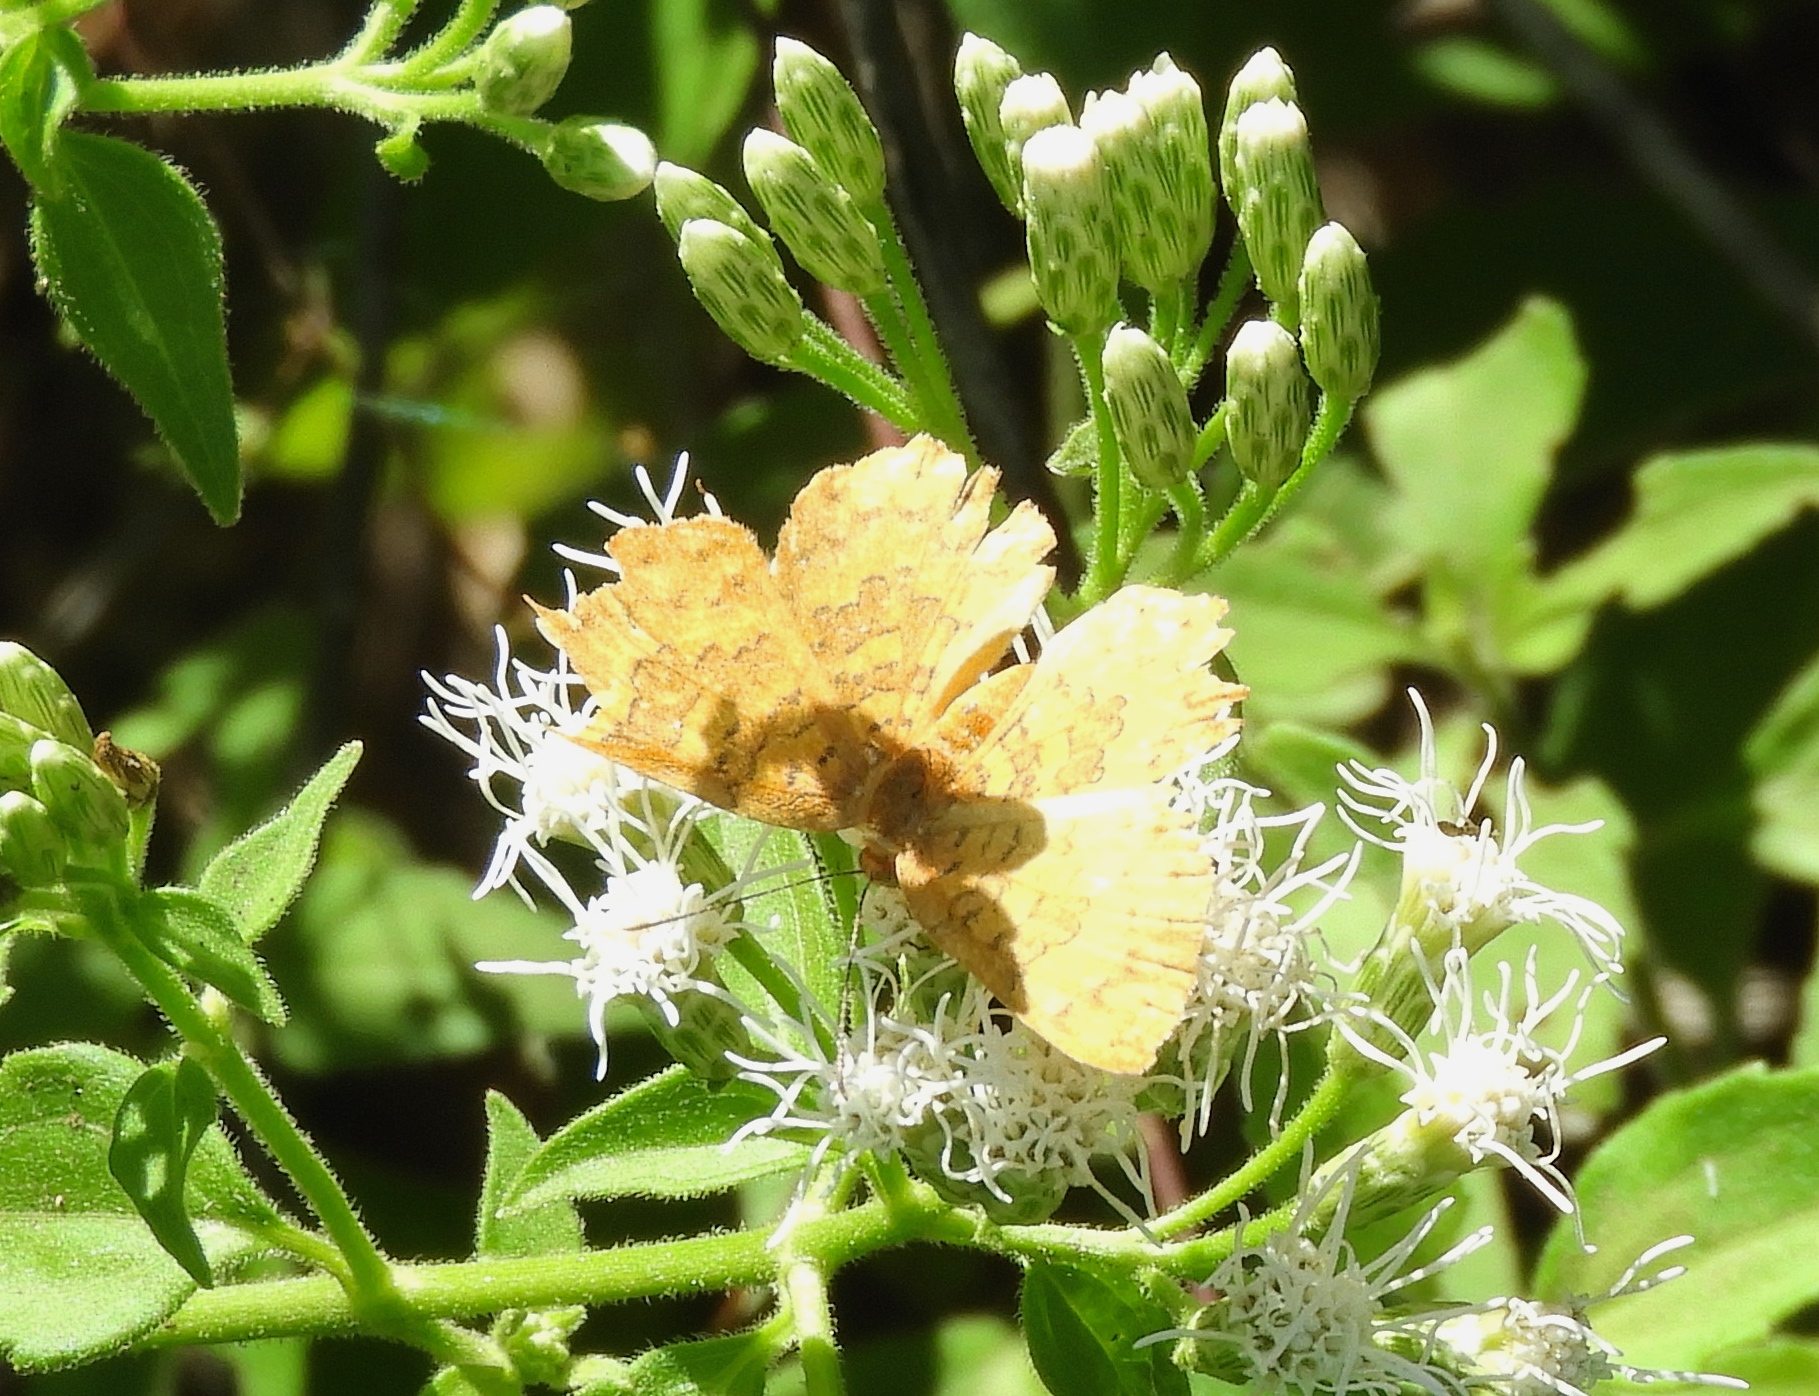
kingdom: Animalia
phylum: Arthropoda
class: Insecta
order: Lepidoptera
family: Lycaenidae
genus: Emesis
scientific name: Emesis
